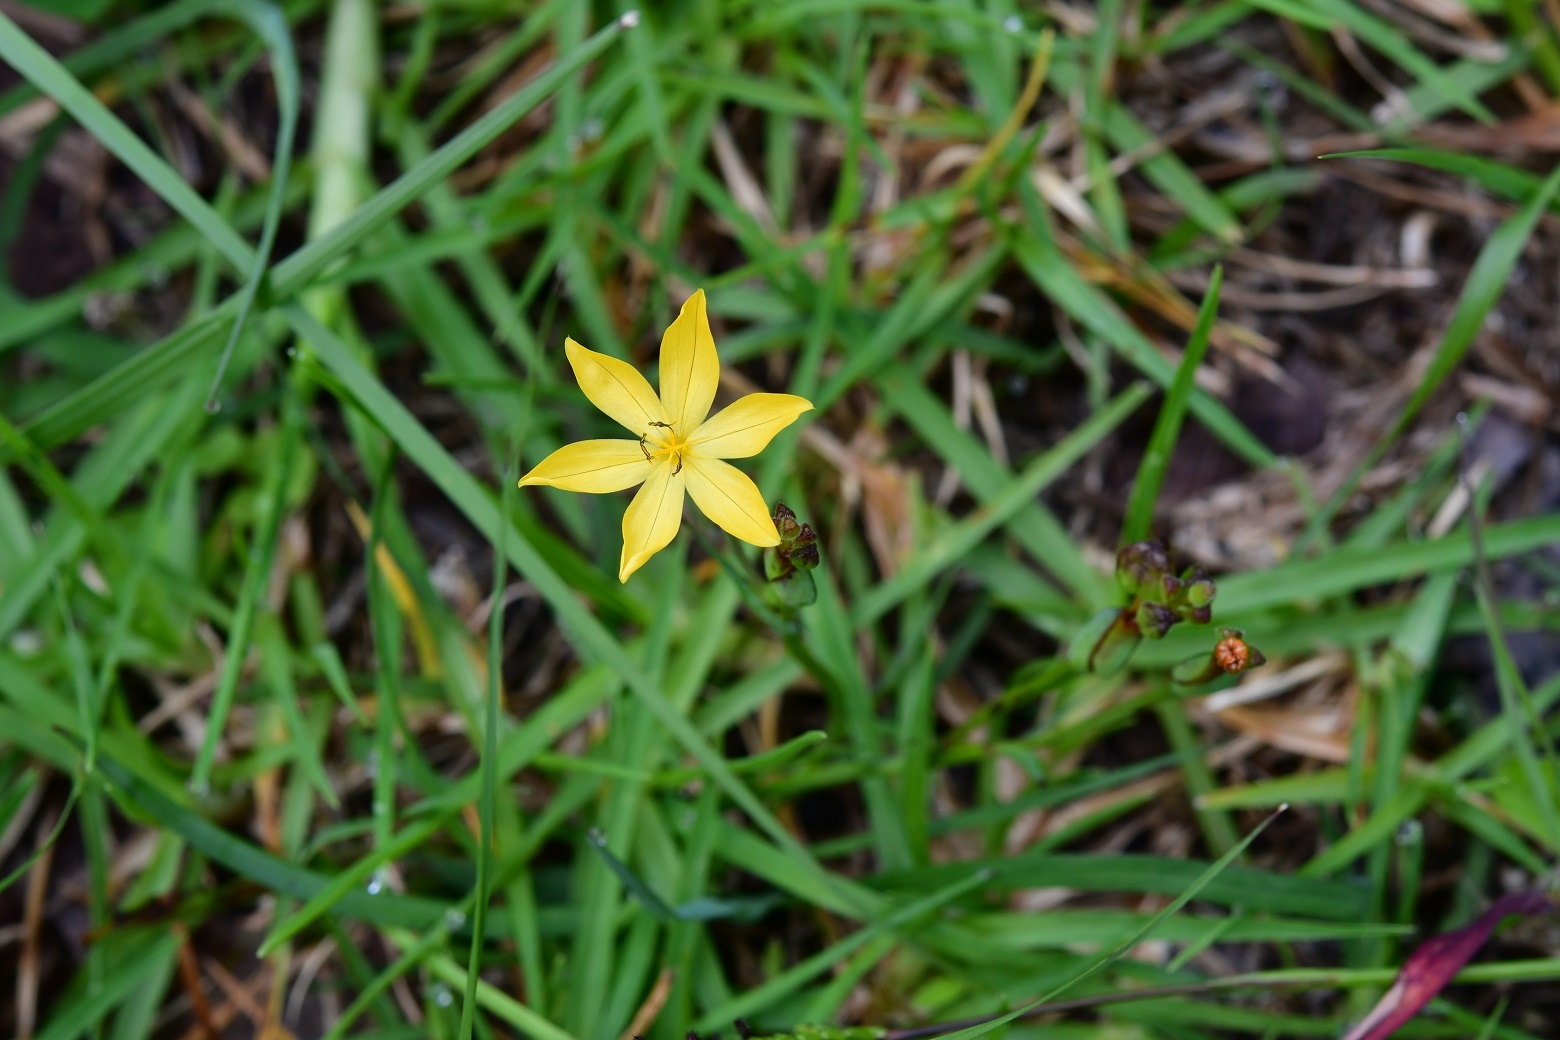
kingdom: Plantae
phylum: Tracheophyta
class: Liliopsida
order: Asparagales
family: Iridaceae
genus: Sisyrinchium
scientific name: Sisyrinchium angustissimum
